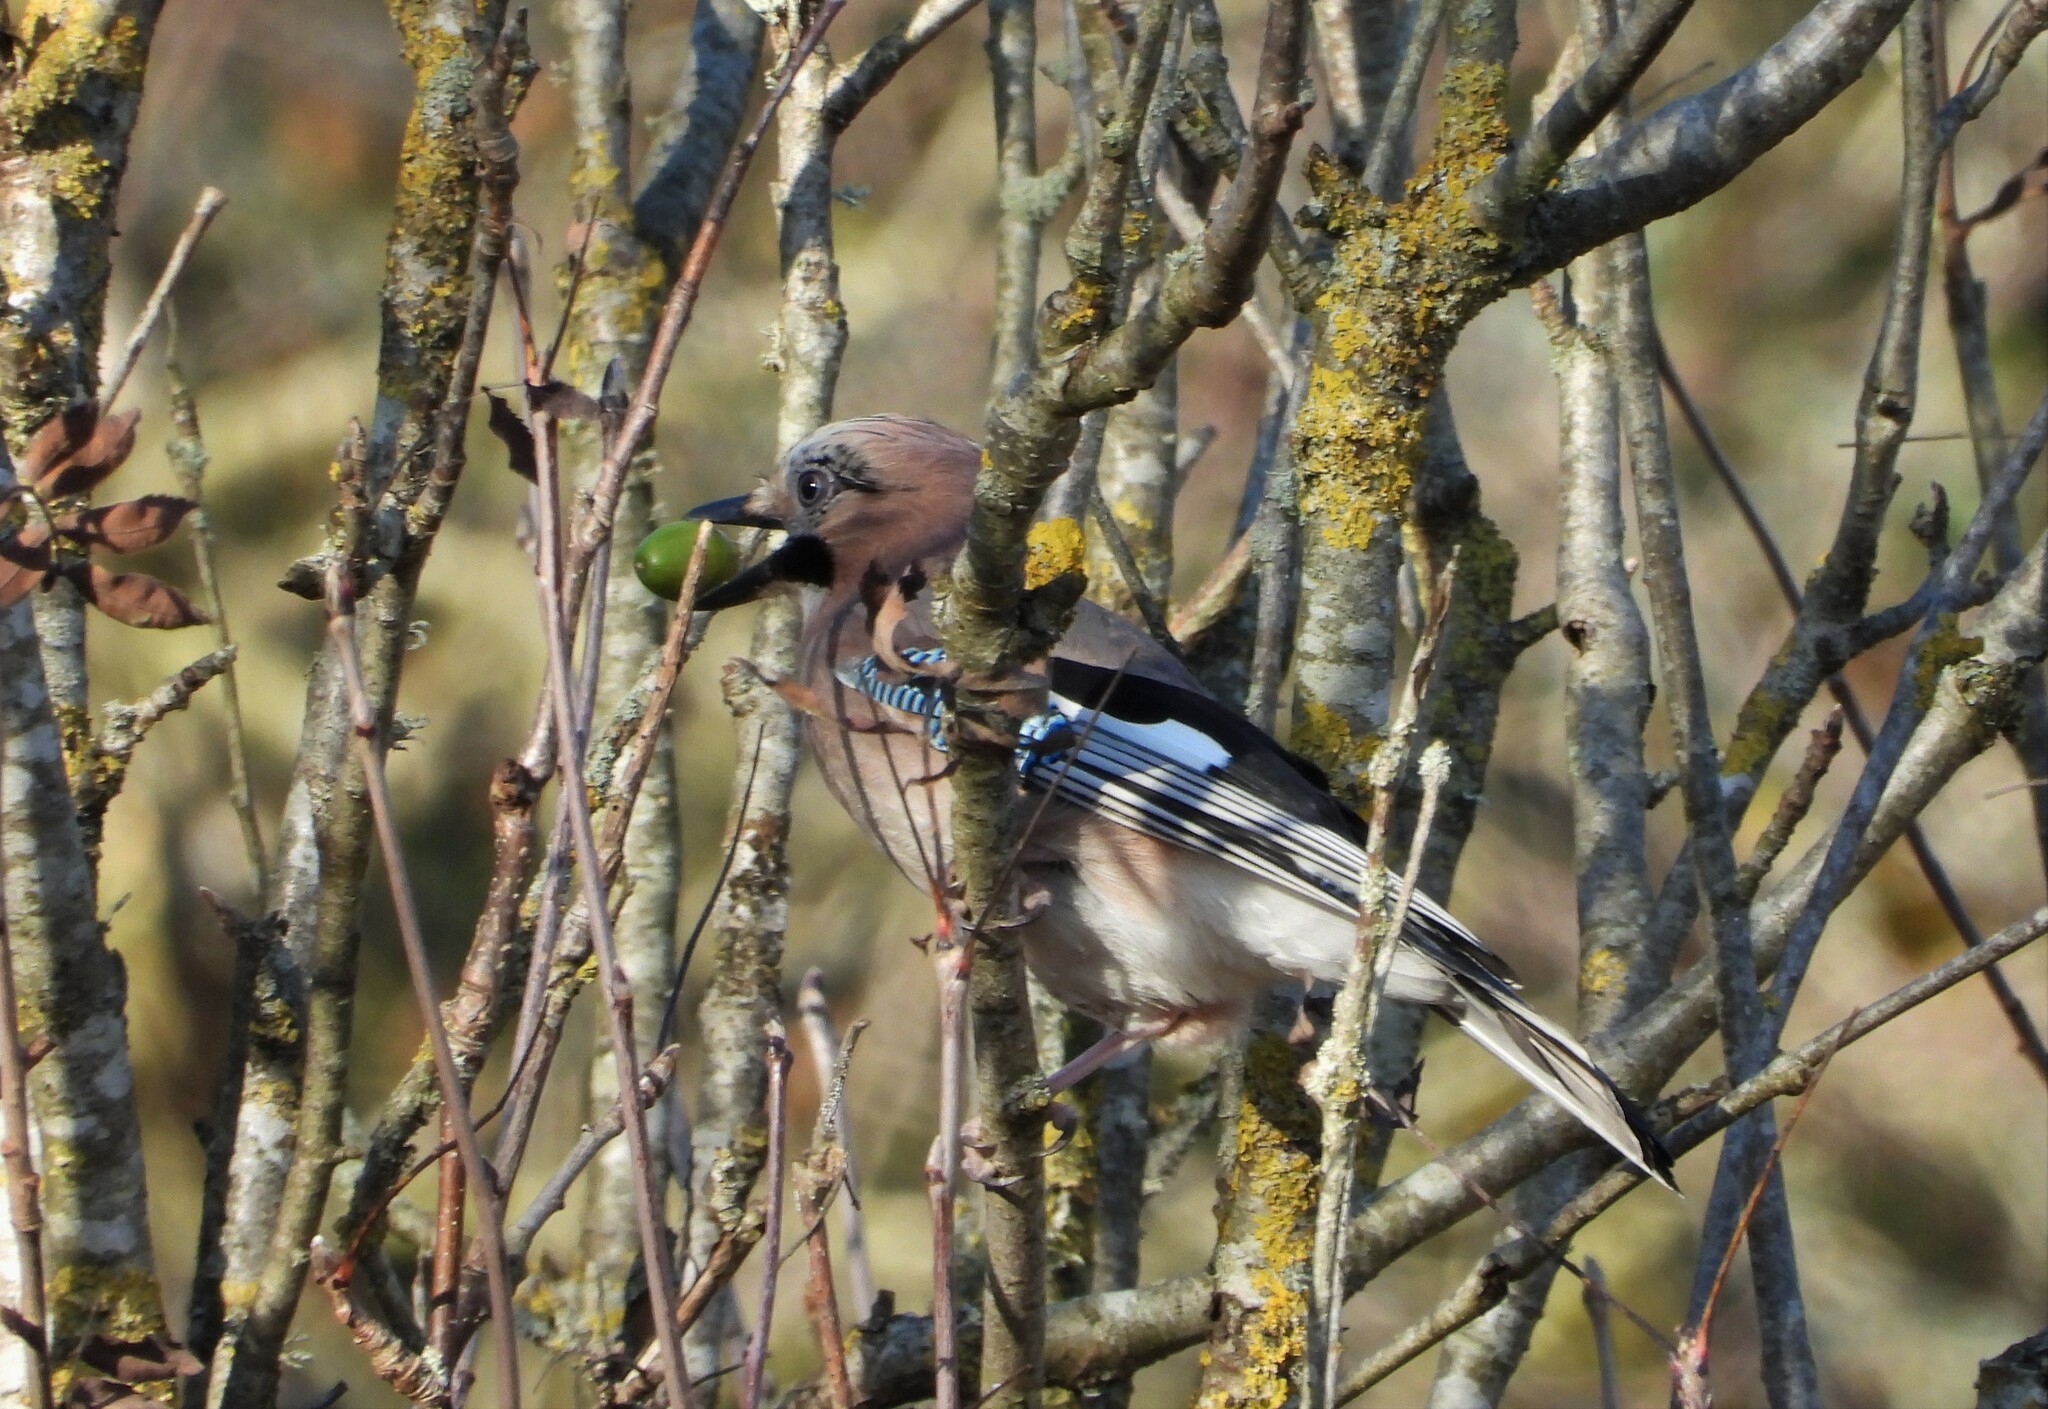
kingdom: Animalia
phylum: Chordata
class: Aves
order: Passeriformes
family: Corvidae
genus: Garrulus
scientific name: Garrulus glandarius
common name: Eurasian jay
